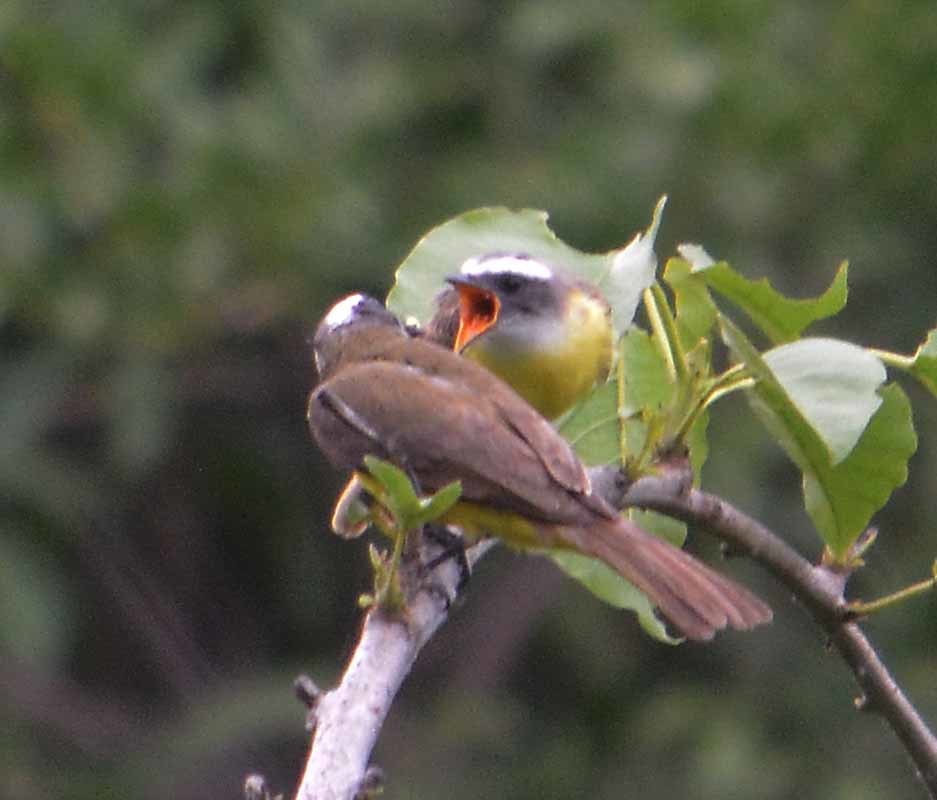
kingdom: Animalia
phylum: Chordata
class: Aves
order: Passeriformes
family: Tyrannidae
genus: Myiozetetes
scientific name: Myiozetetes similis
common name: Social flycatcher
